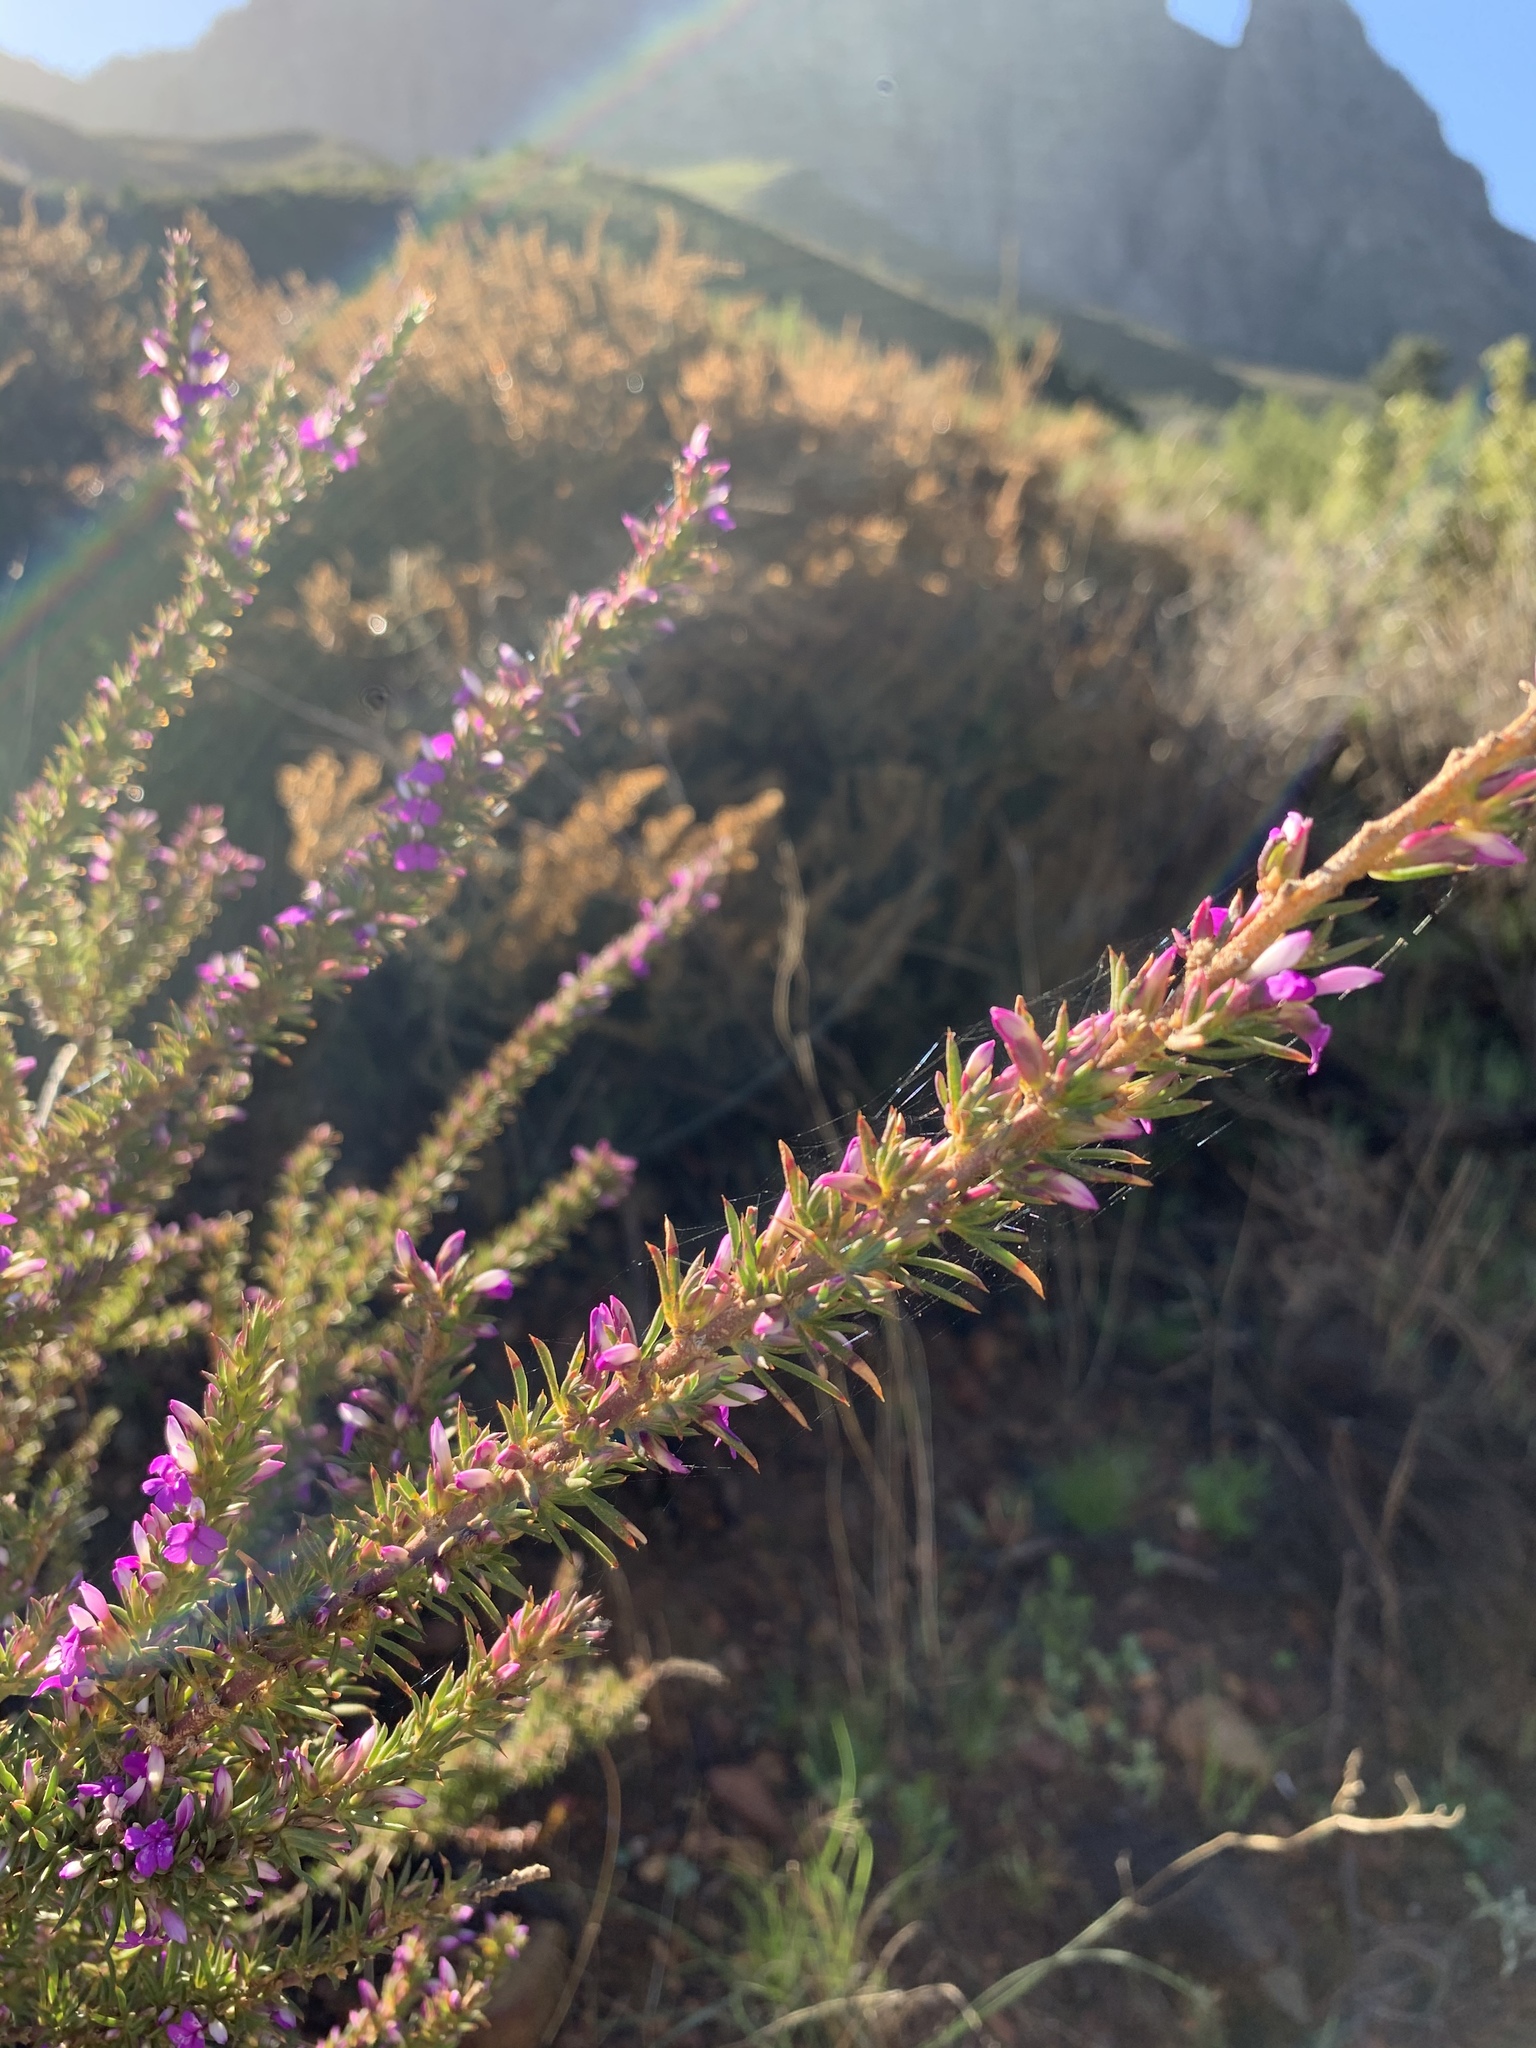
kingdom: Plantae
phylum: Tracheophyta
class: Magnoliopsida
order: Fabales
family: Polygalaceae
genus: Muraltia
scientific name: Muraltia heisteria
